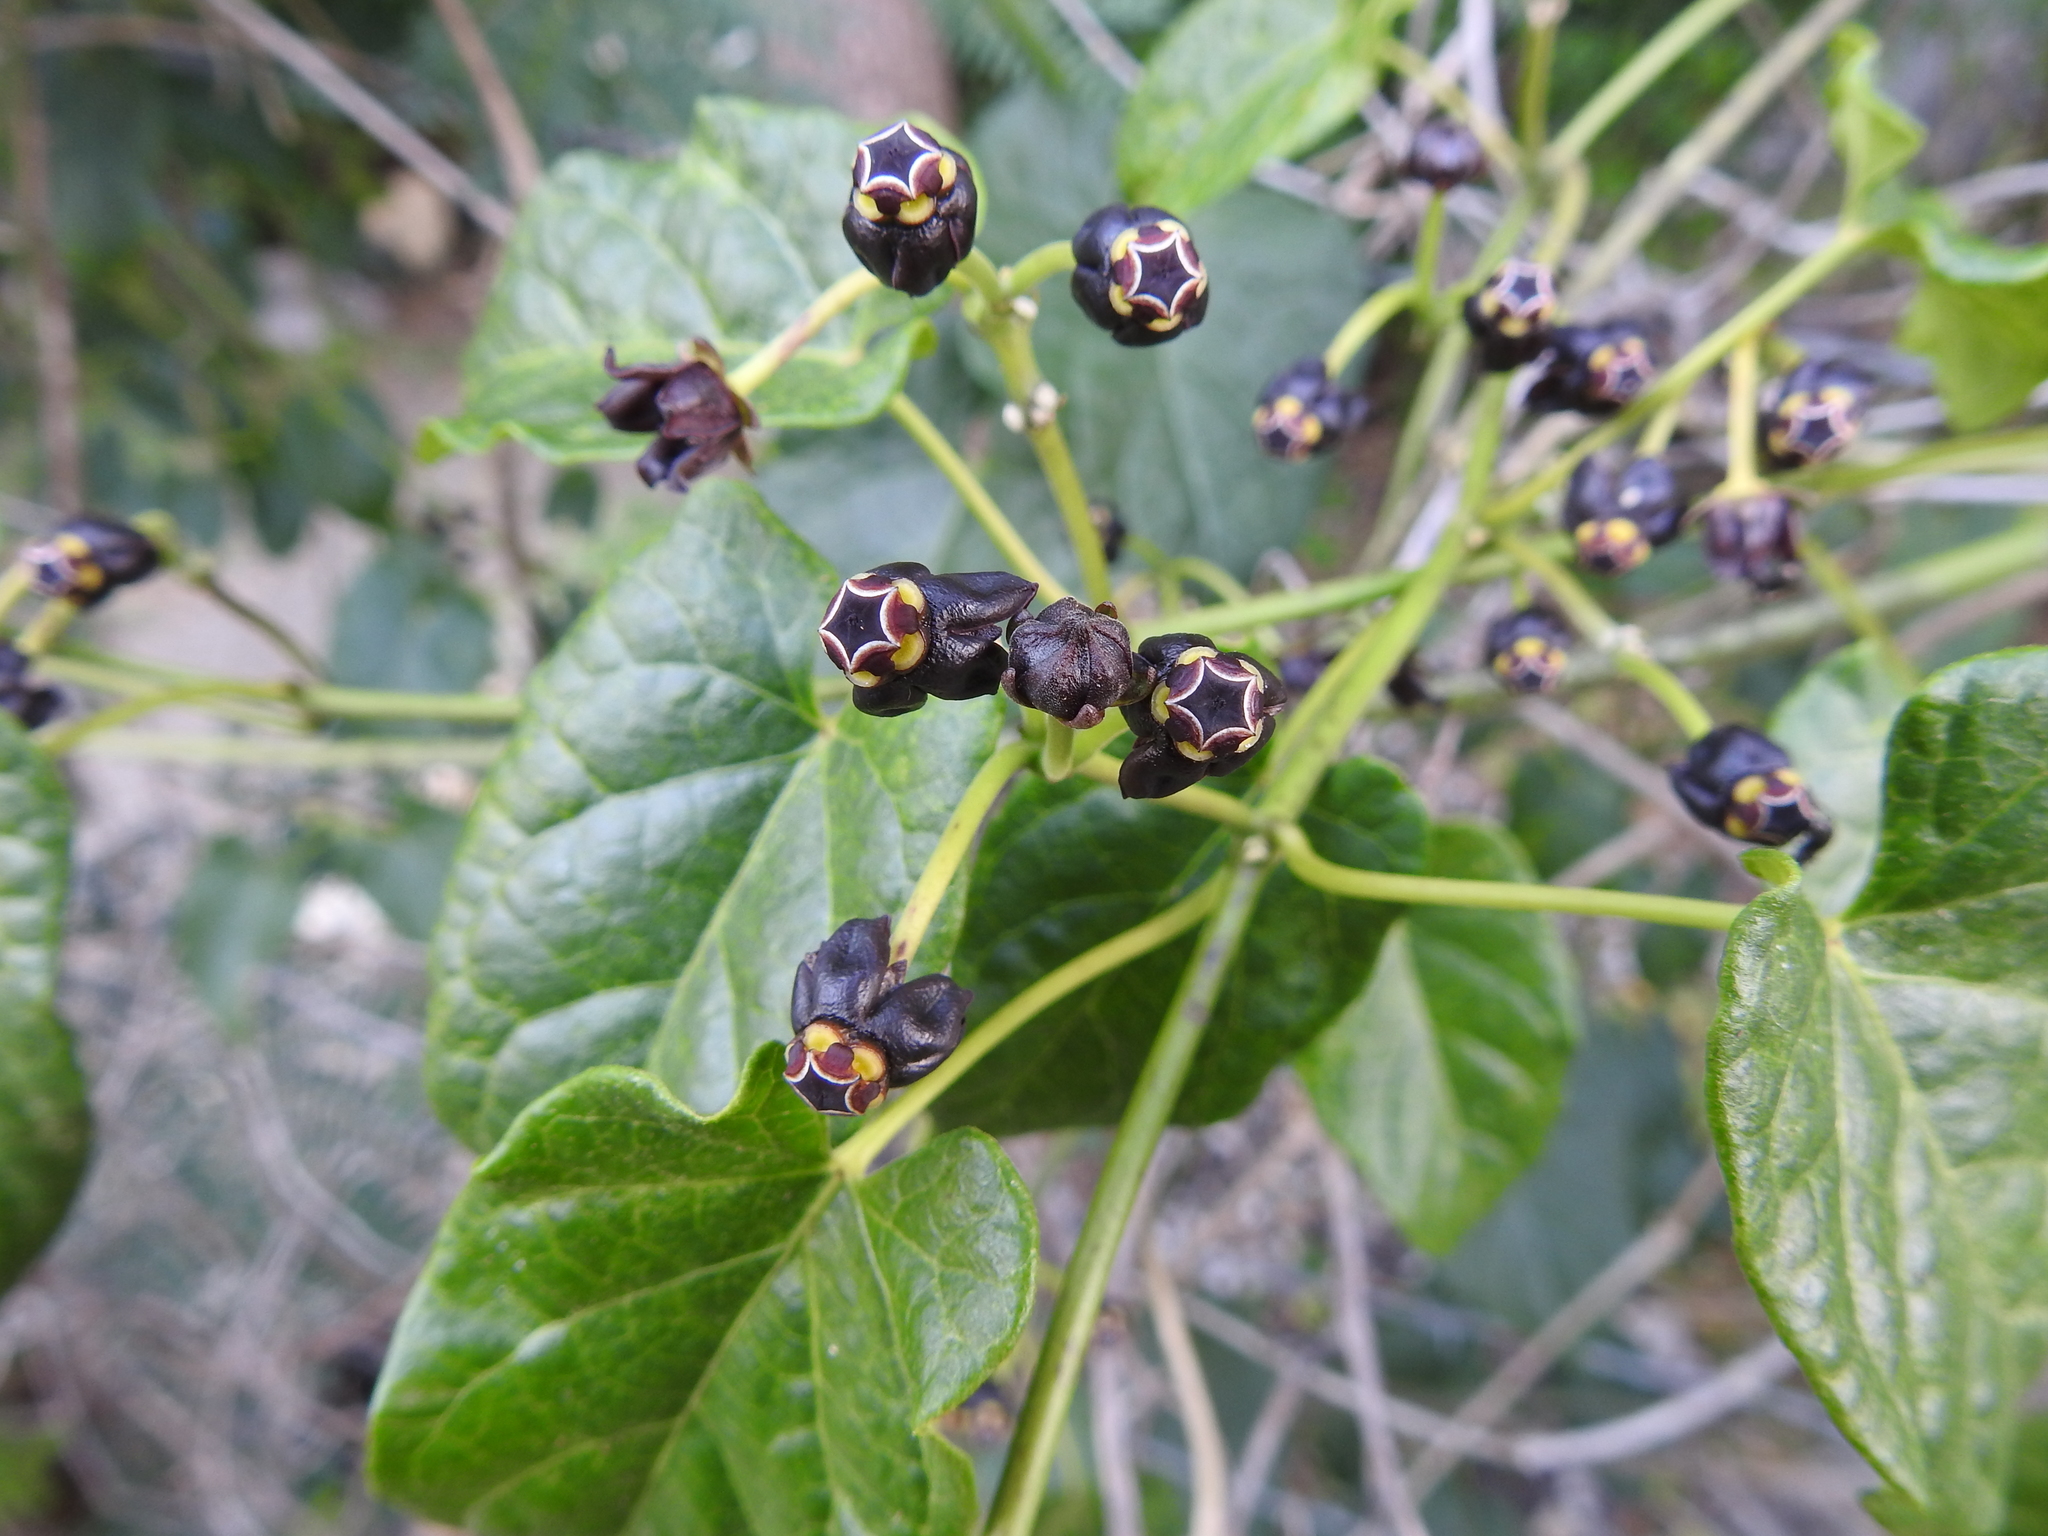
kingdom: Plantae
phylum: Tracheophyta
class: Magnoliopsida
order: Gentianales
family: Apocynaceae
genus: Gonolobus
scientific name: Gonolobus niger
